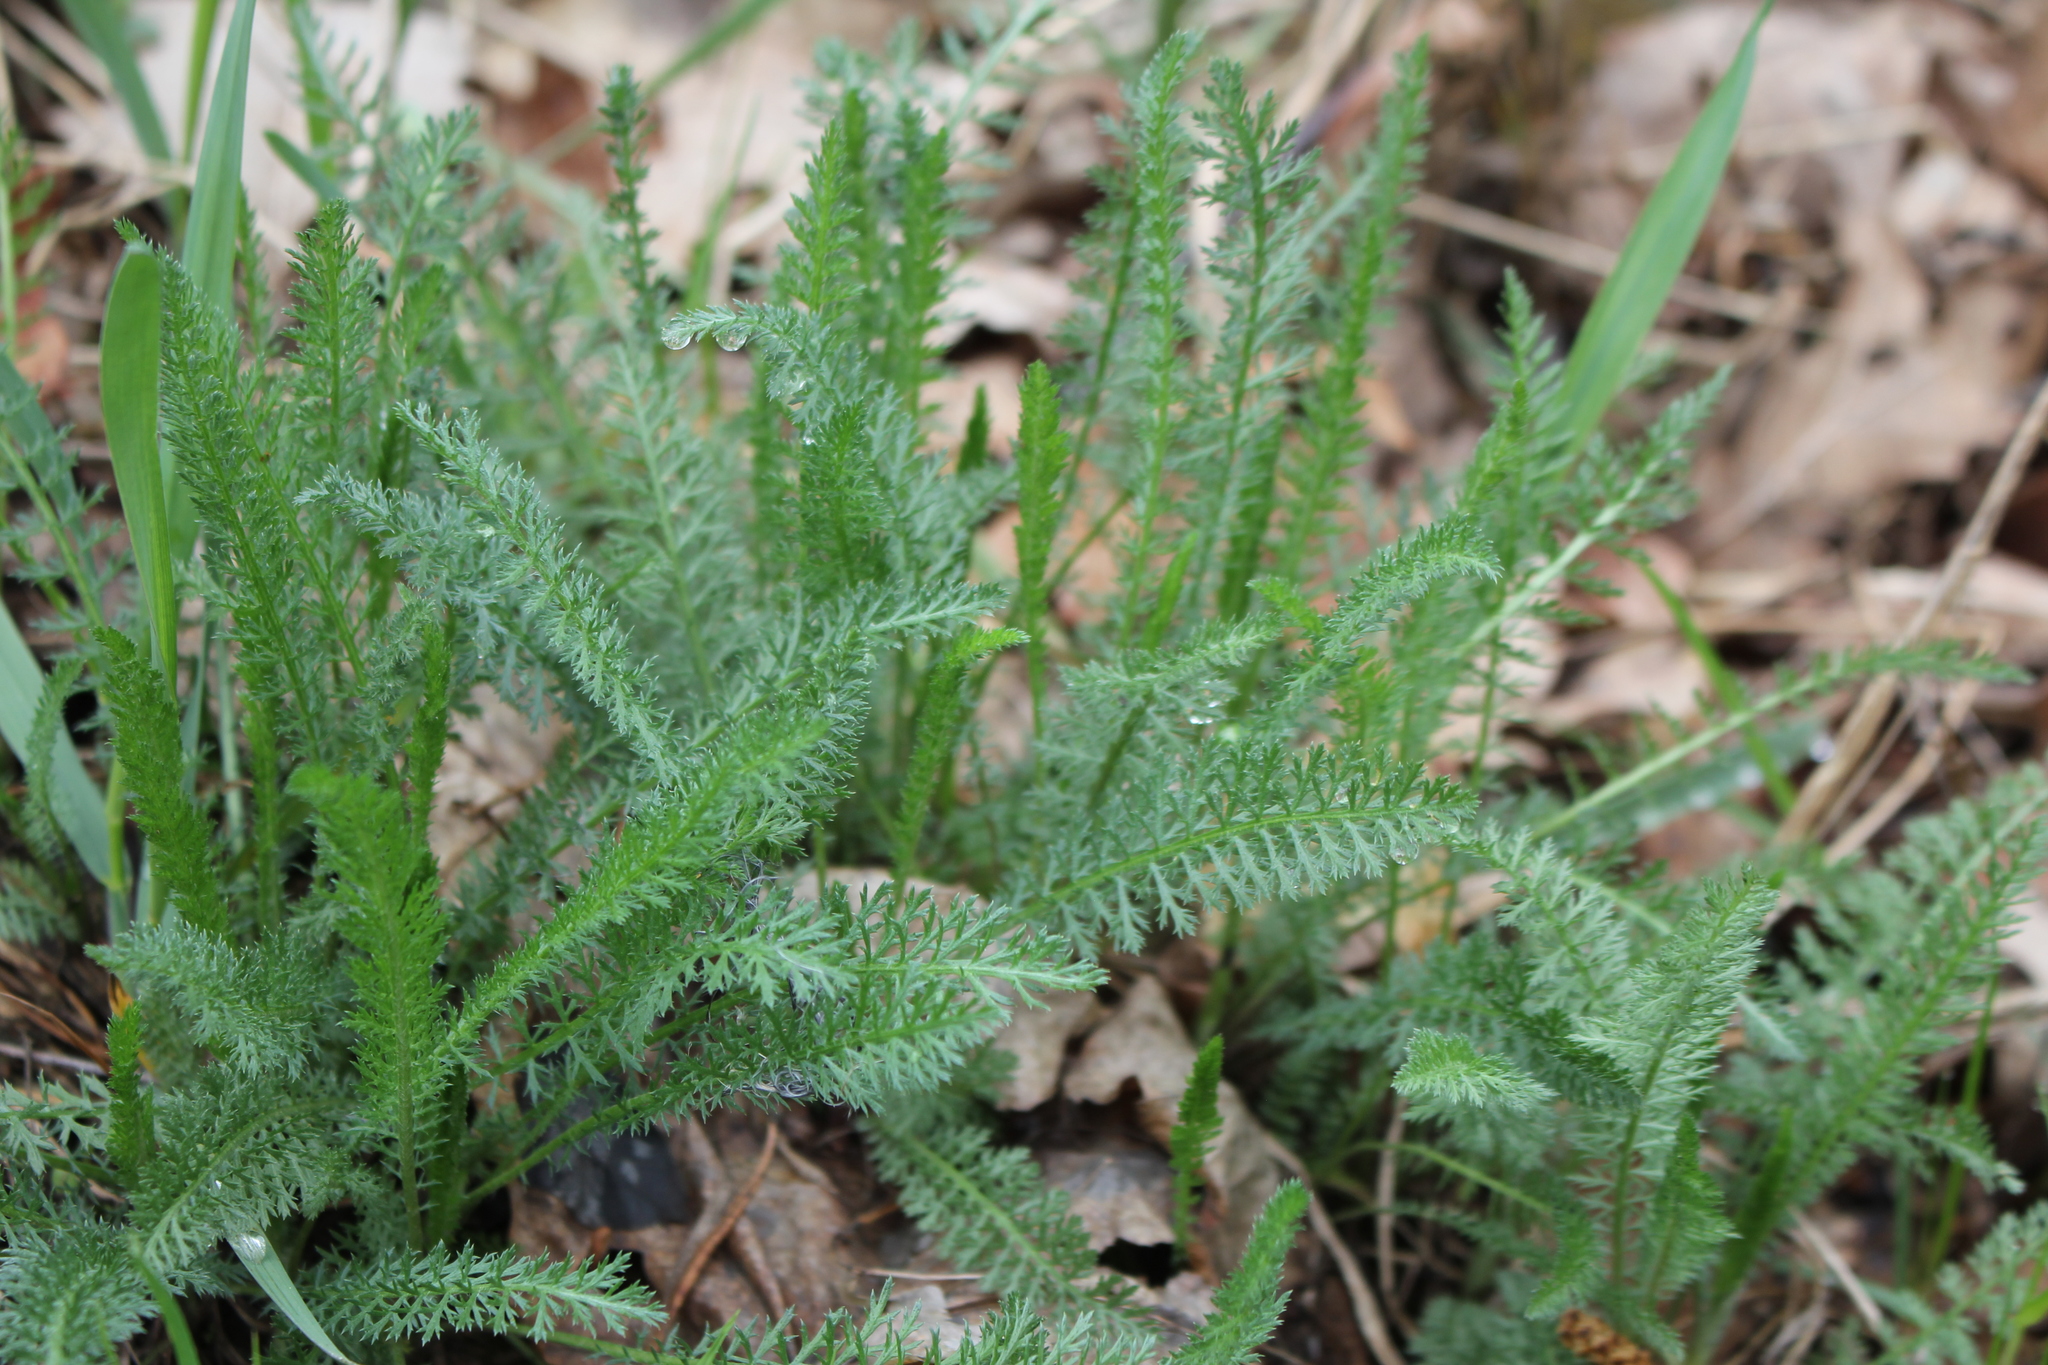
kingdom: Plantae
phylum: Tracheophyta
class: Magnoliopsida
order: Asterales
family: Asteraceae
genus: Achillea
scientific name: Achillea millefolium
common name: Yarrow
